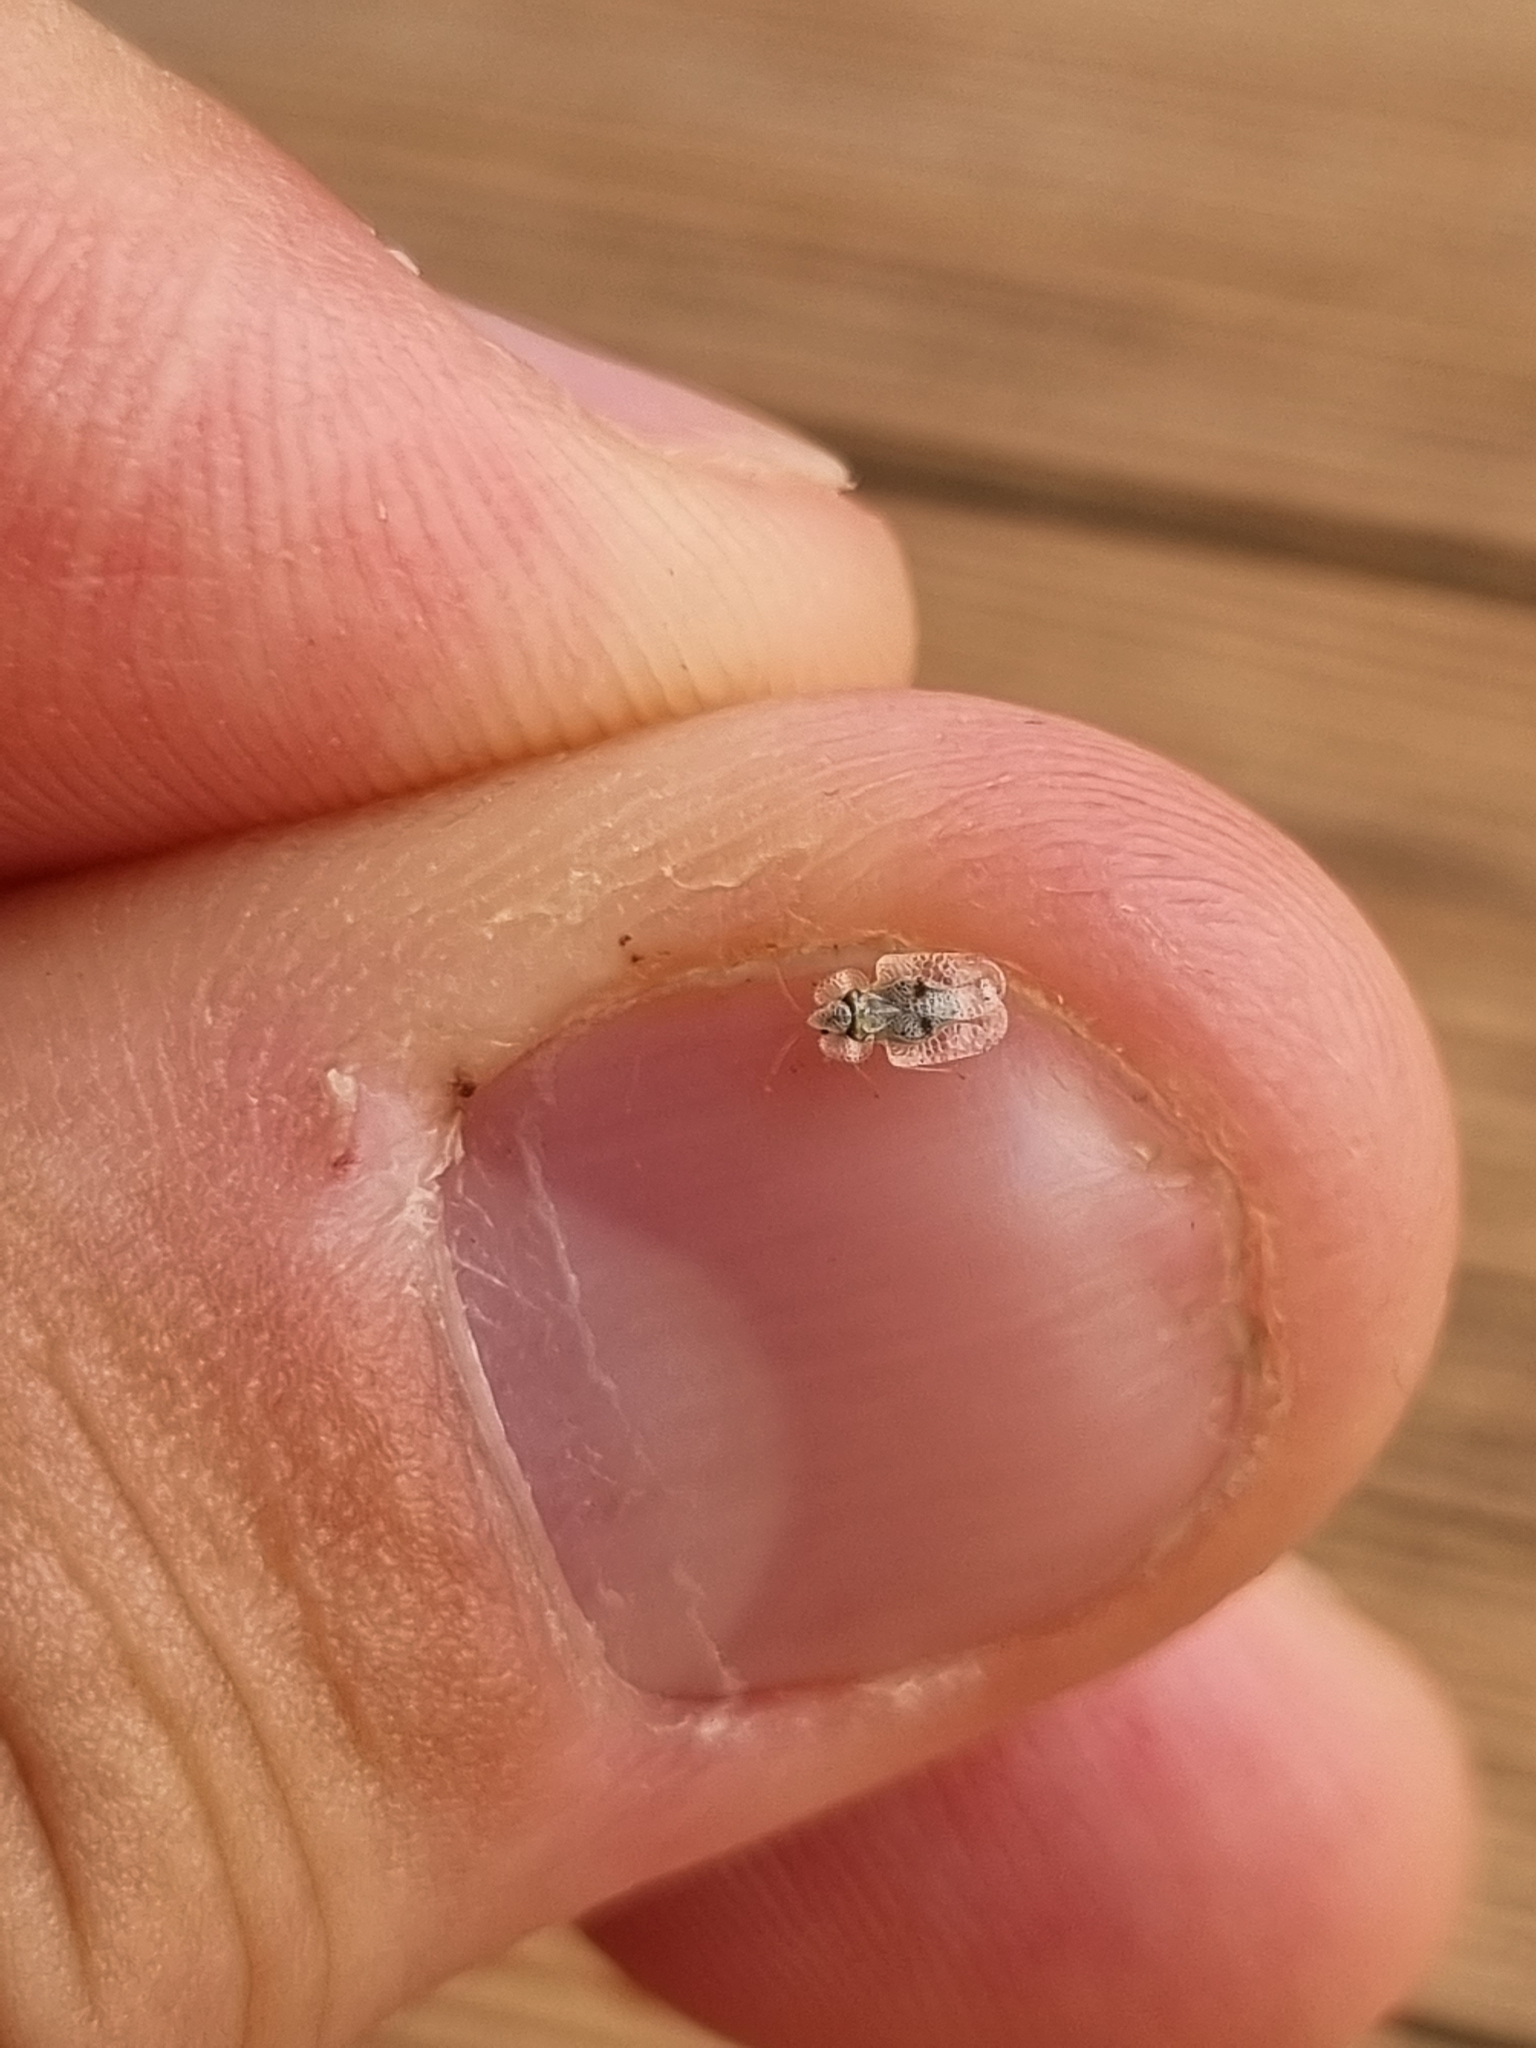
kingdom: Animalia
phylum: Arthropoda
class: Insecta
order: Hemiptera
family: Tingidae
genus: Corythucha
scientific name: Corythucha ciliata
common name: Sycamore lace bug
